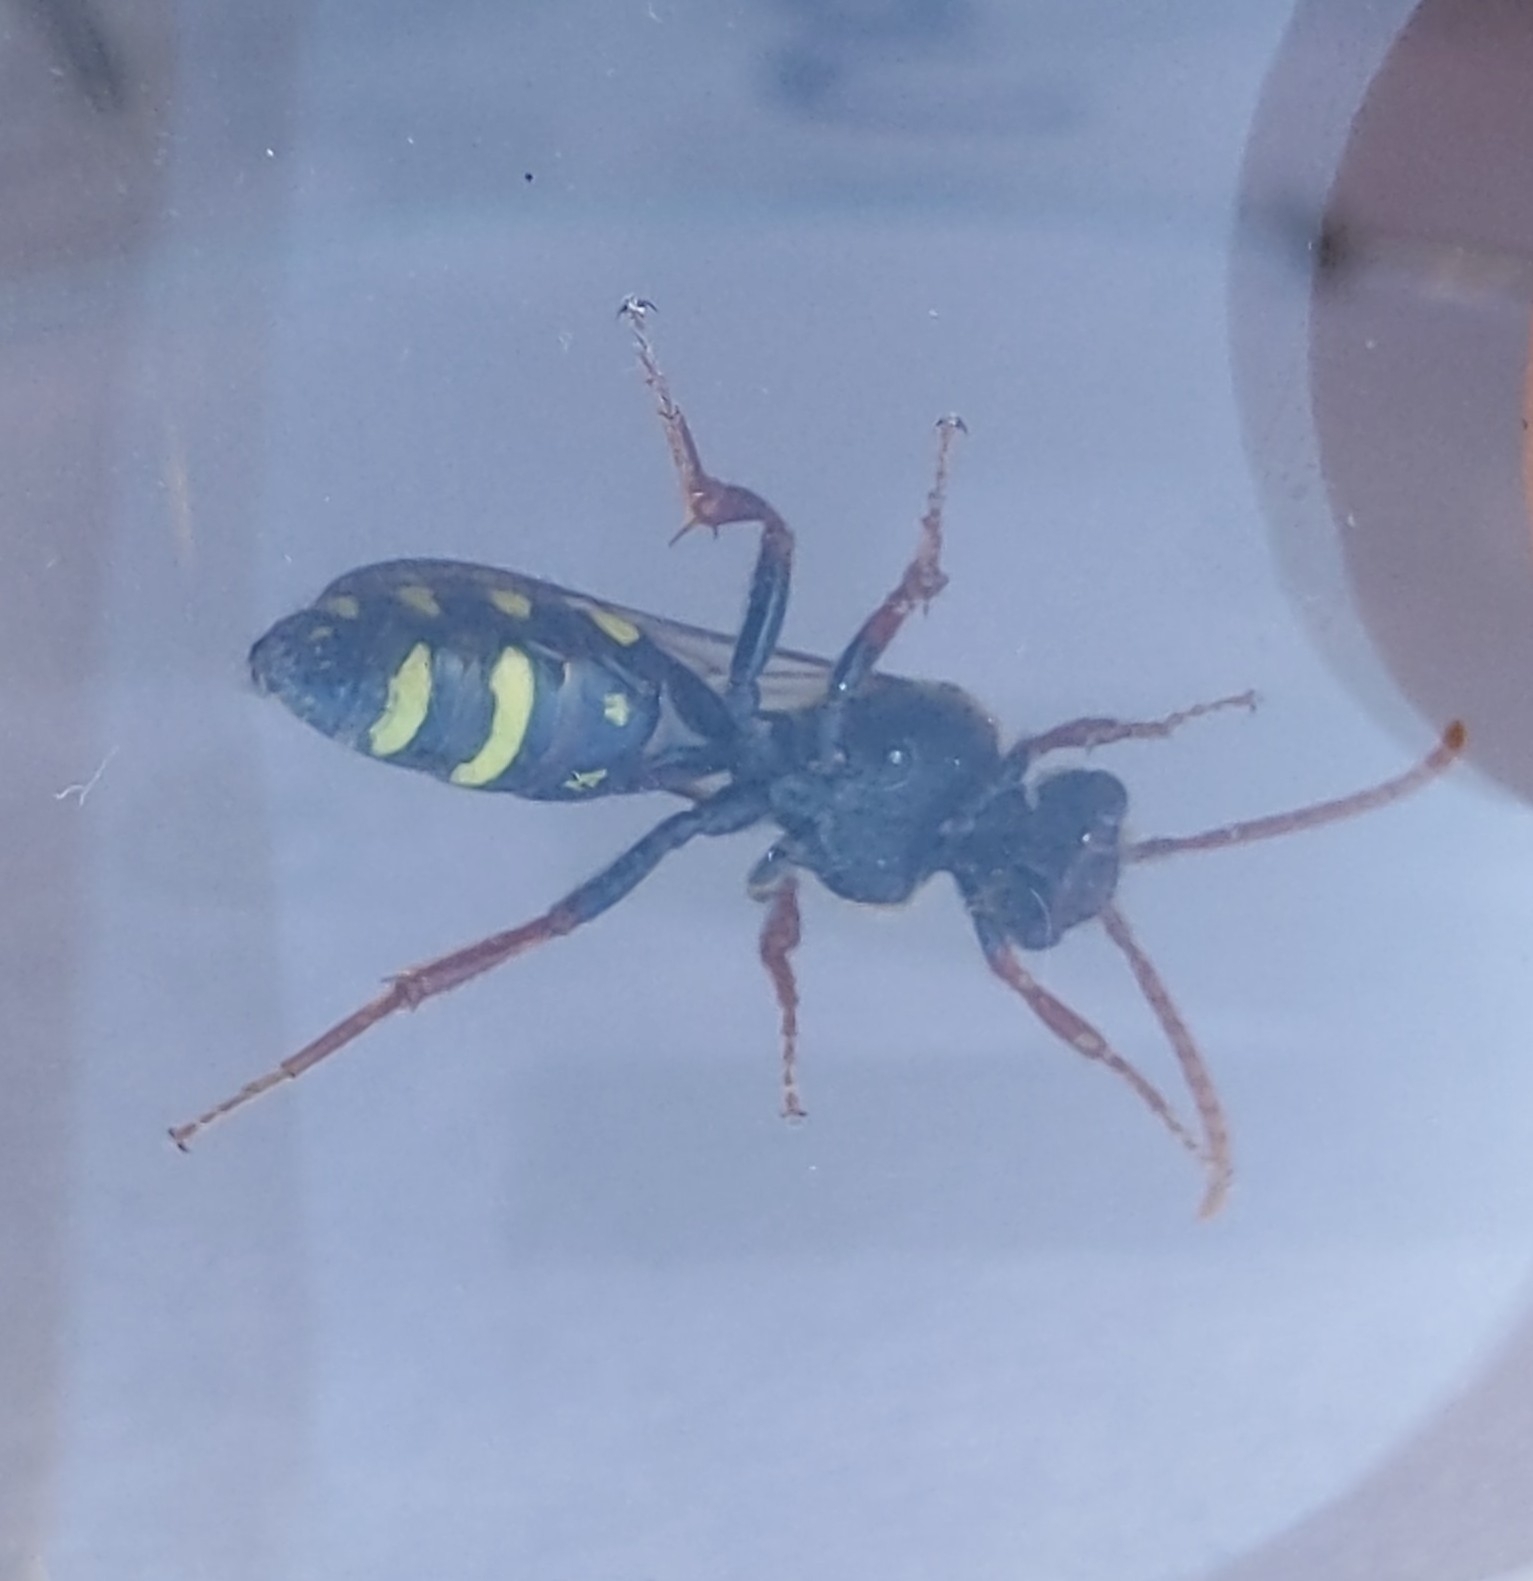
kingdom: Animalia
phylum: Arthropoda
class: Insecta
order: Hymenoptera
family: Apidae
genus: Nomada
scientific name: Nomada marshamella
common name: Marsham's nomad bee
